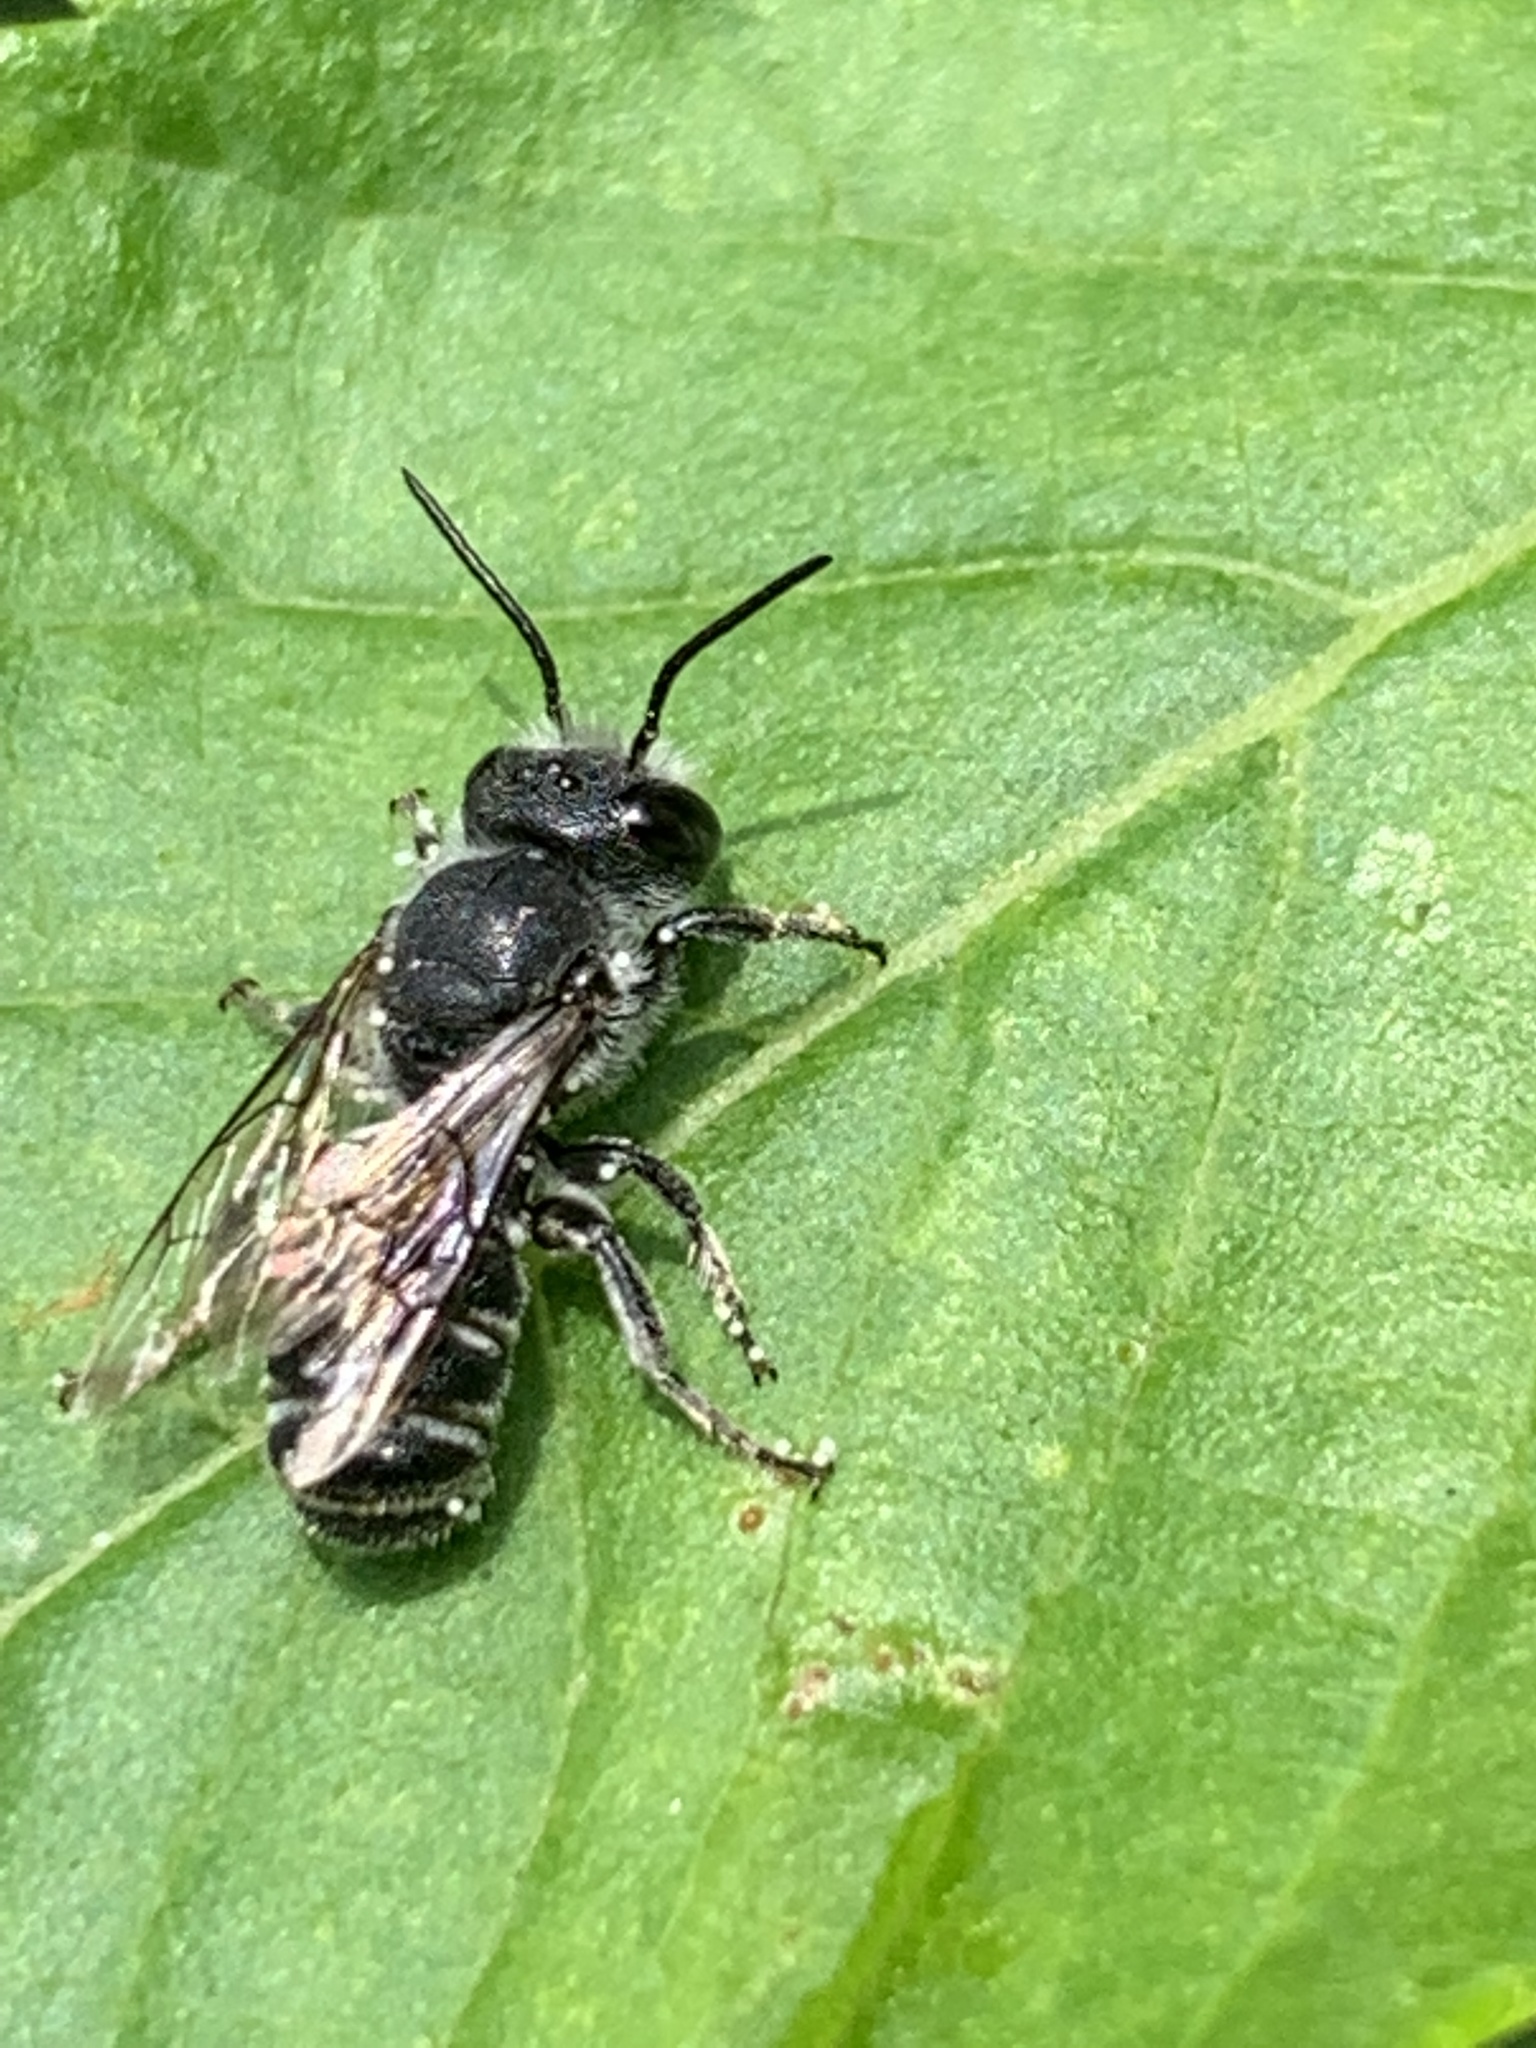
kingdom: Animalia
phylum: Arthropoda
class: Insecta
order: Hymenoptera
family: Megachilidae
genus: Megachile
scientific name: Megachile campanulae
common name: Bellflower resin bee
